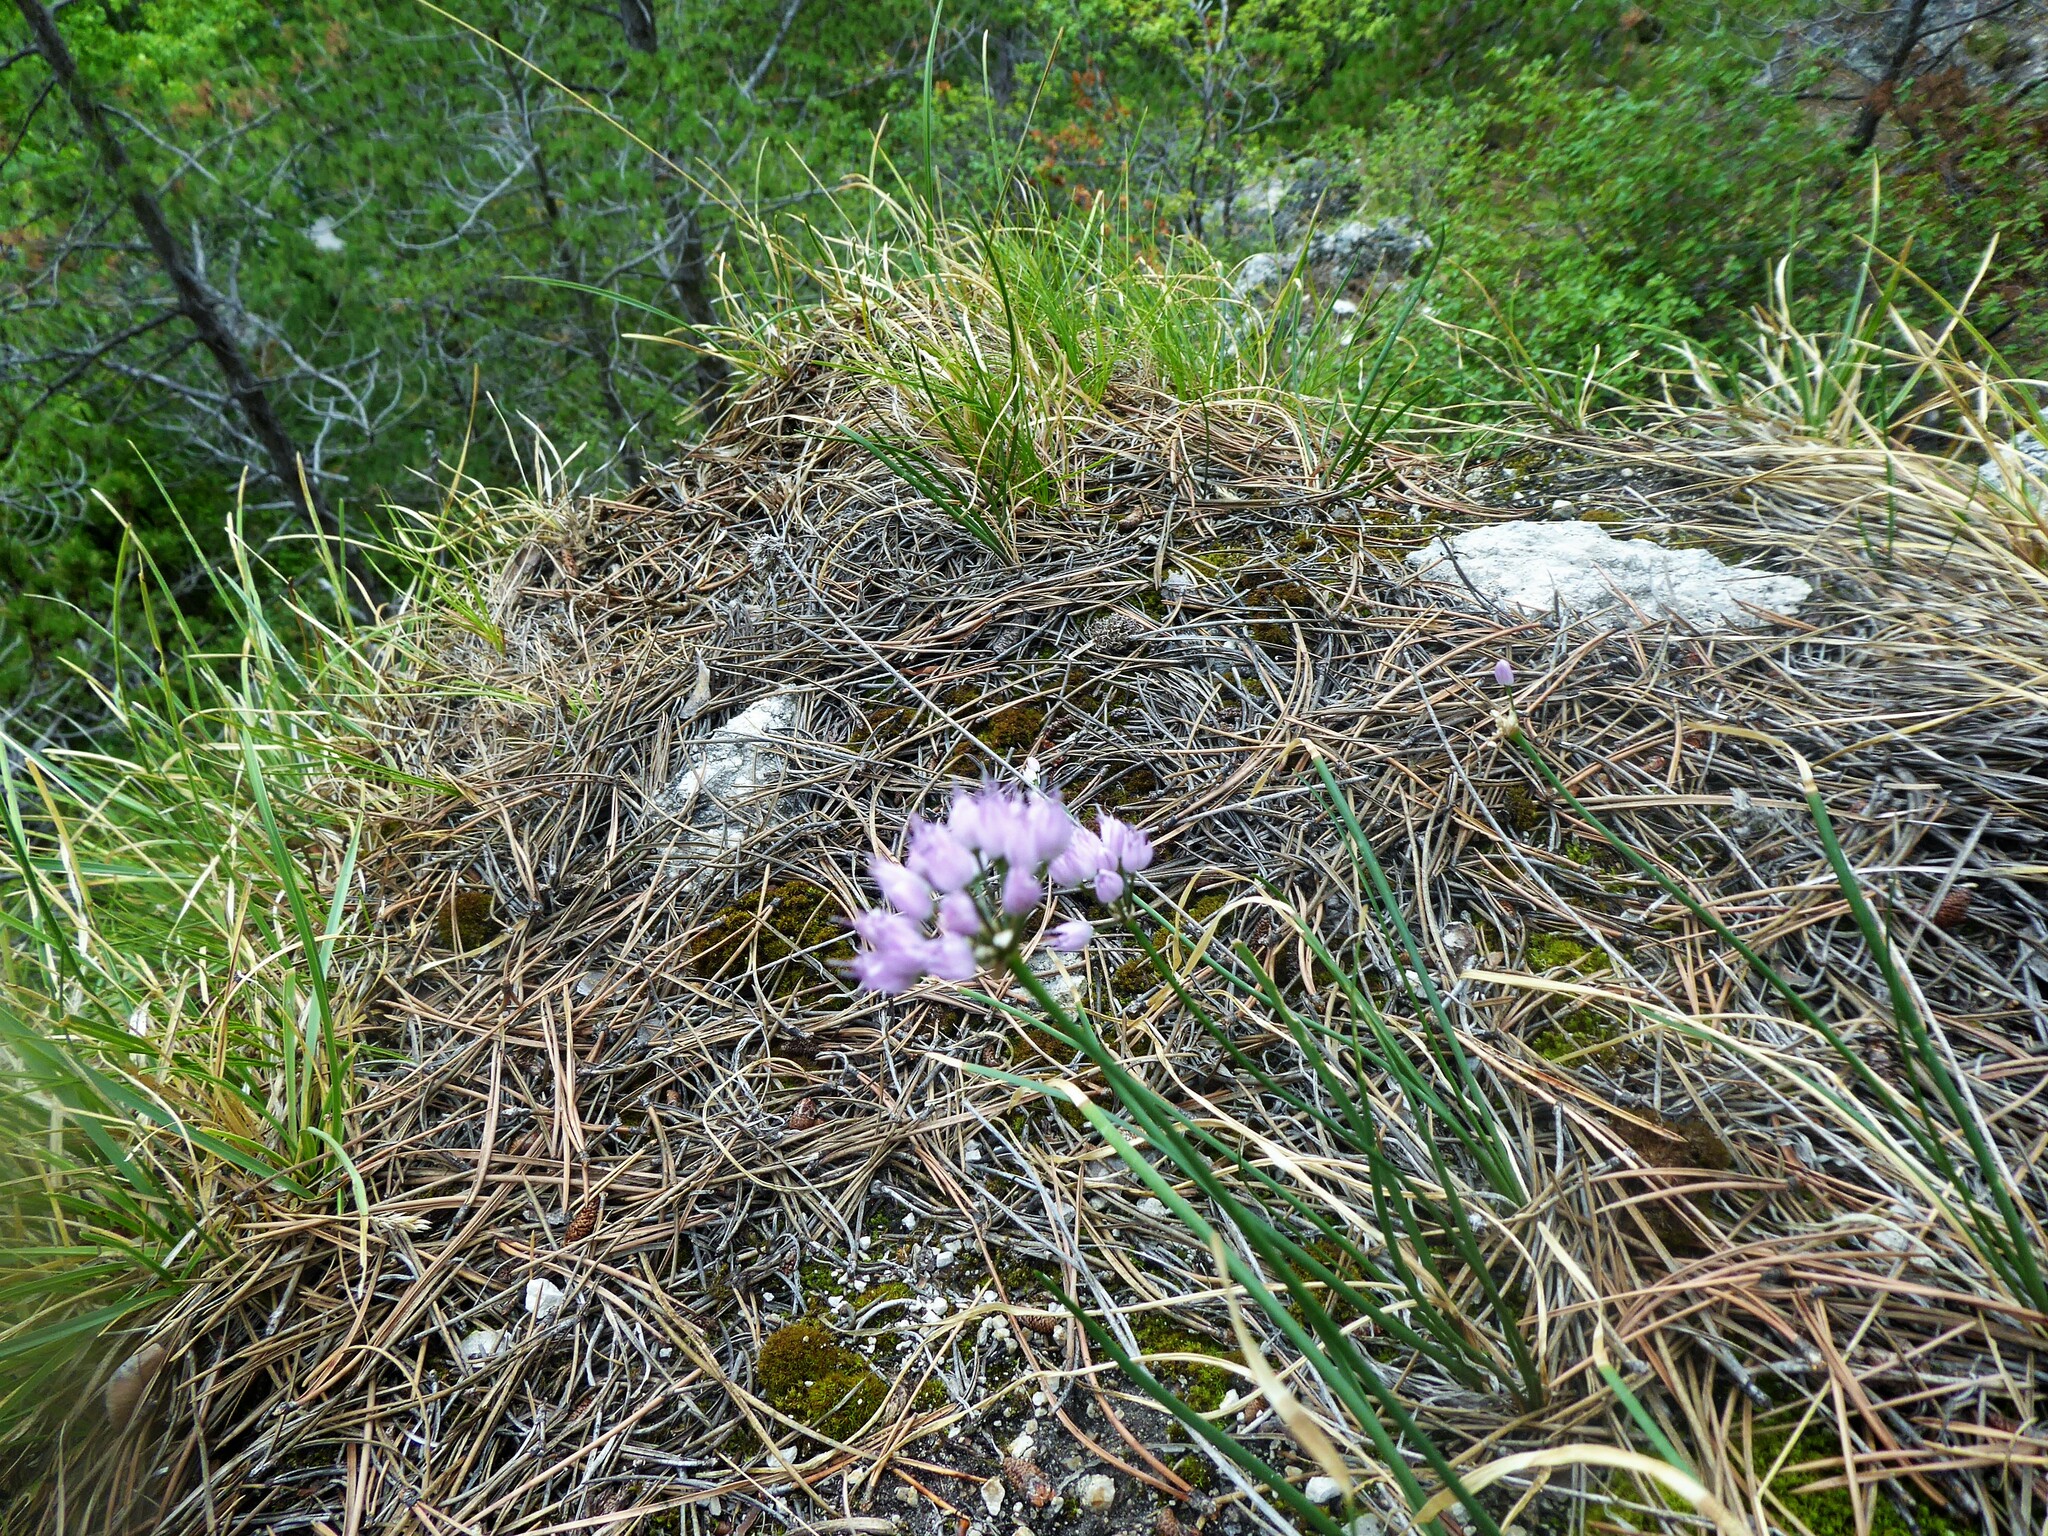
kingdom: Plantae
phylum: Tracheophyta
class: Liliopsida
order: Asparagales
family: Amaryllidaceae
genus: Allium
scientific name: Allium lusitanicum
